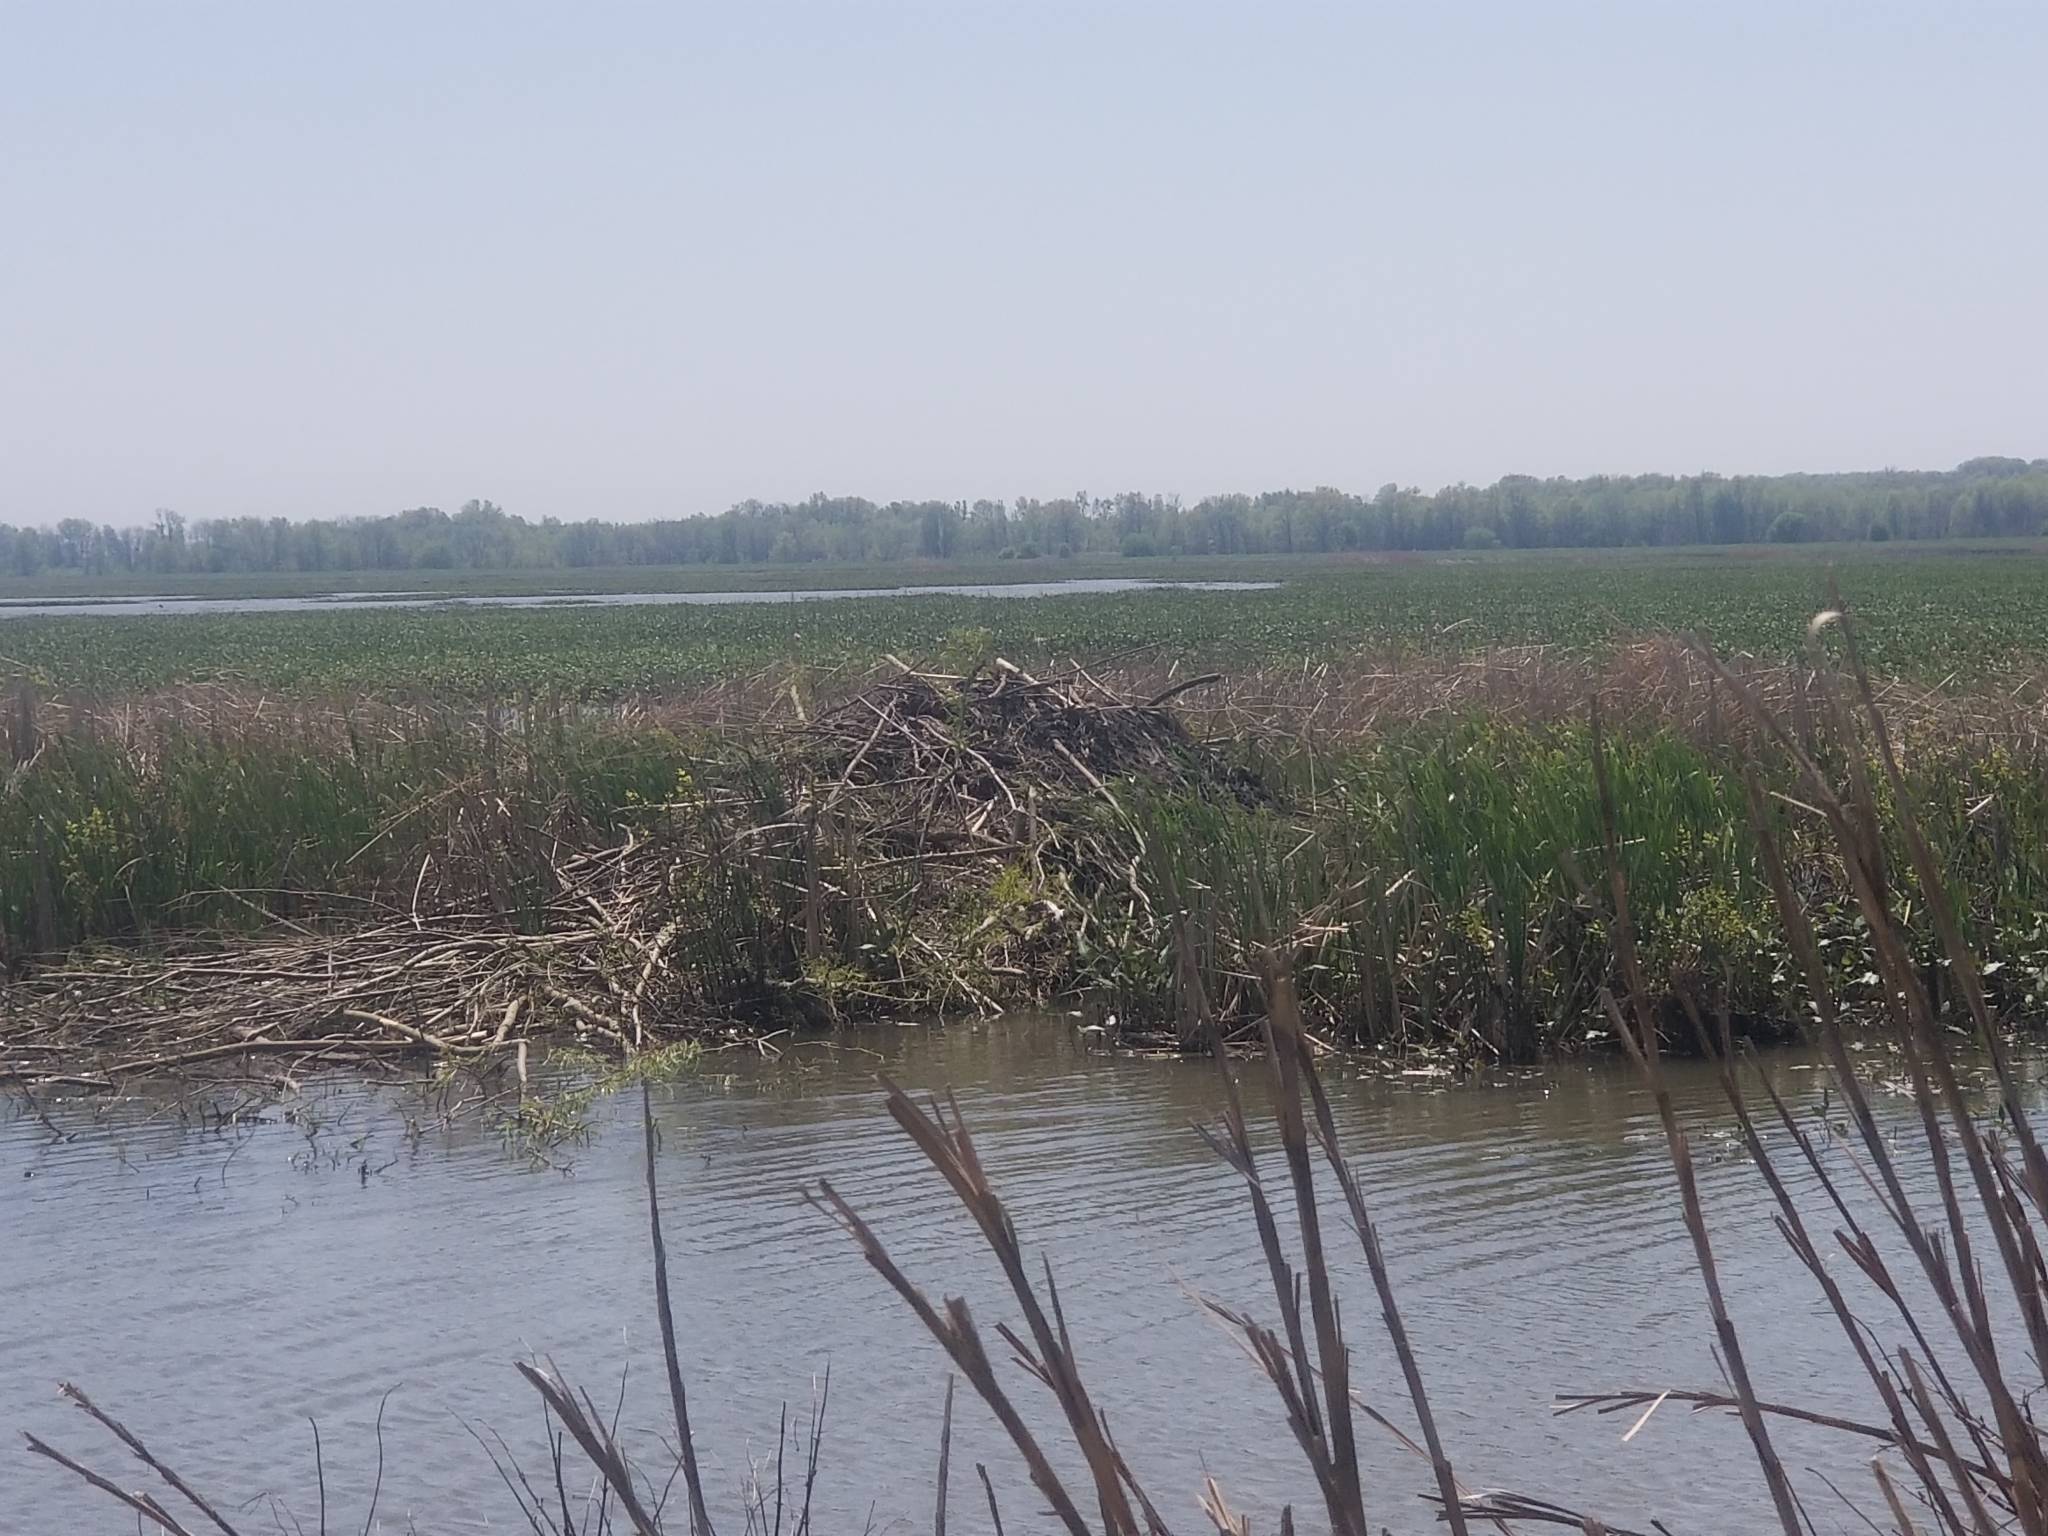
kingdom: Animalia
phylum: Chordata
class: Mammalia
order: Rodentia
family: Castoridae
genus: Castor
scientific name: Castor canadensis
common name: American beaver
